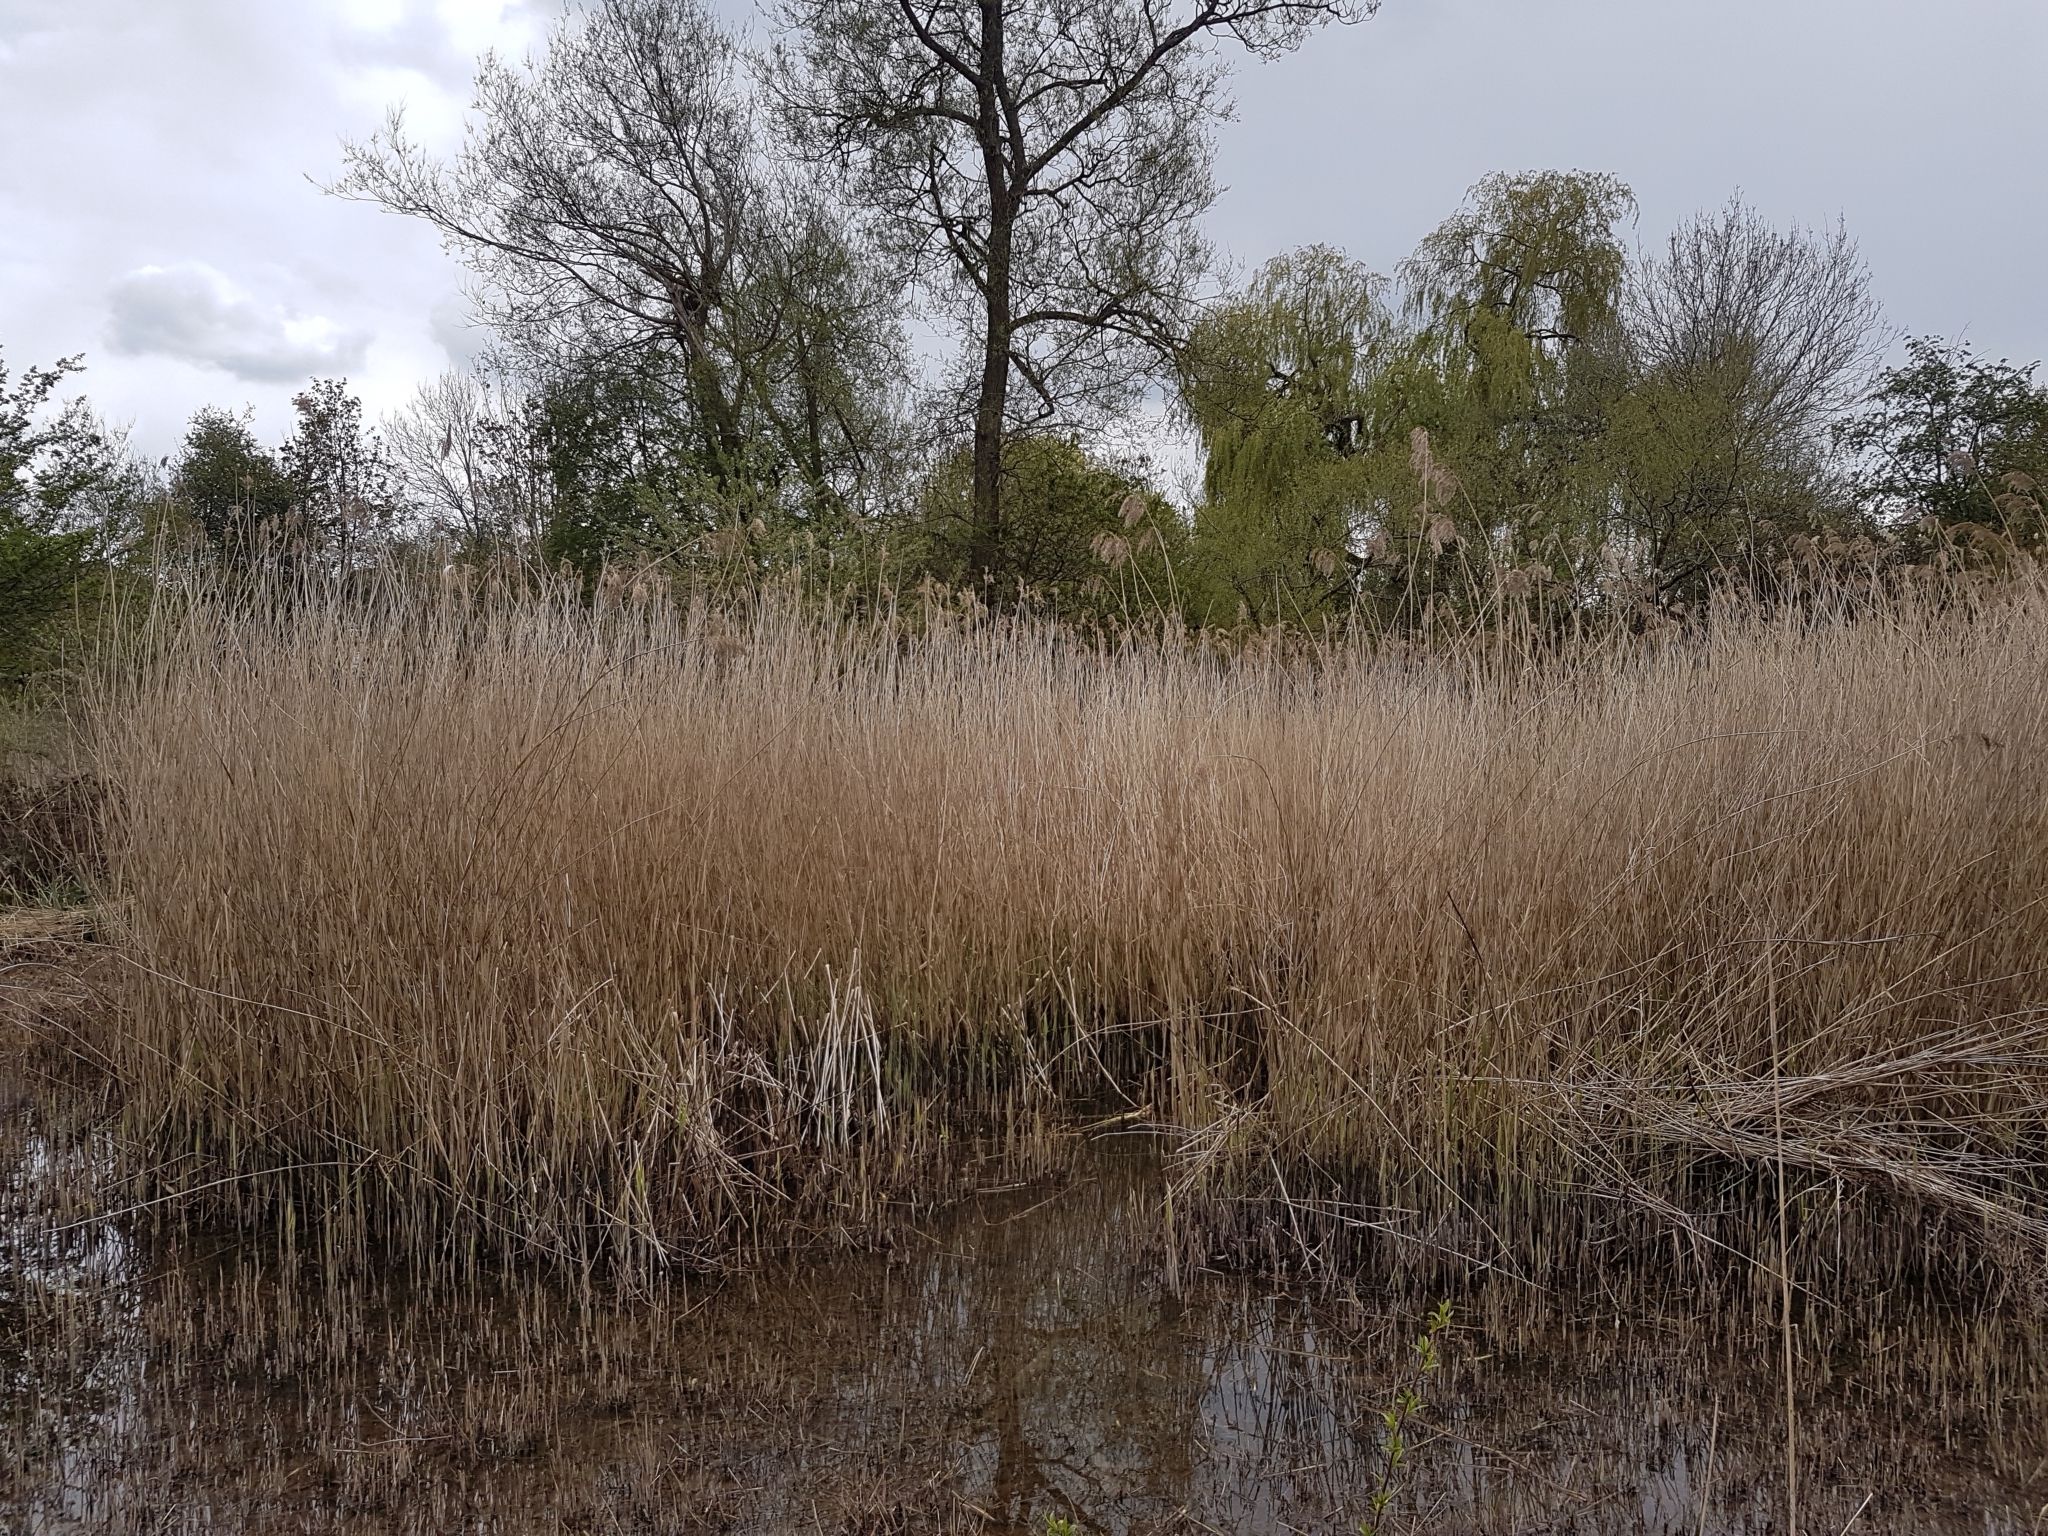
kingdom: Plantae
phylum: Tracheophyta
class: Liliopsida
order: Poales
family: Poaceae
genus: Phragmites
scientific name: Phragmites australis
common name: Common reed
